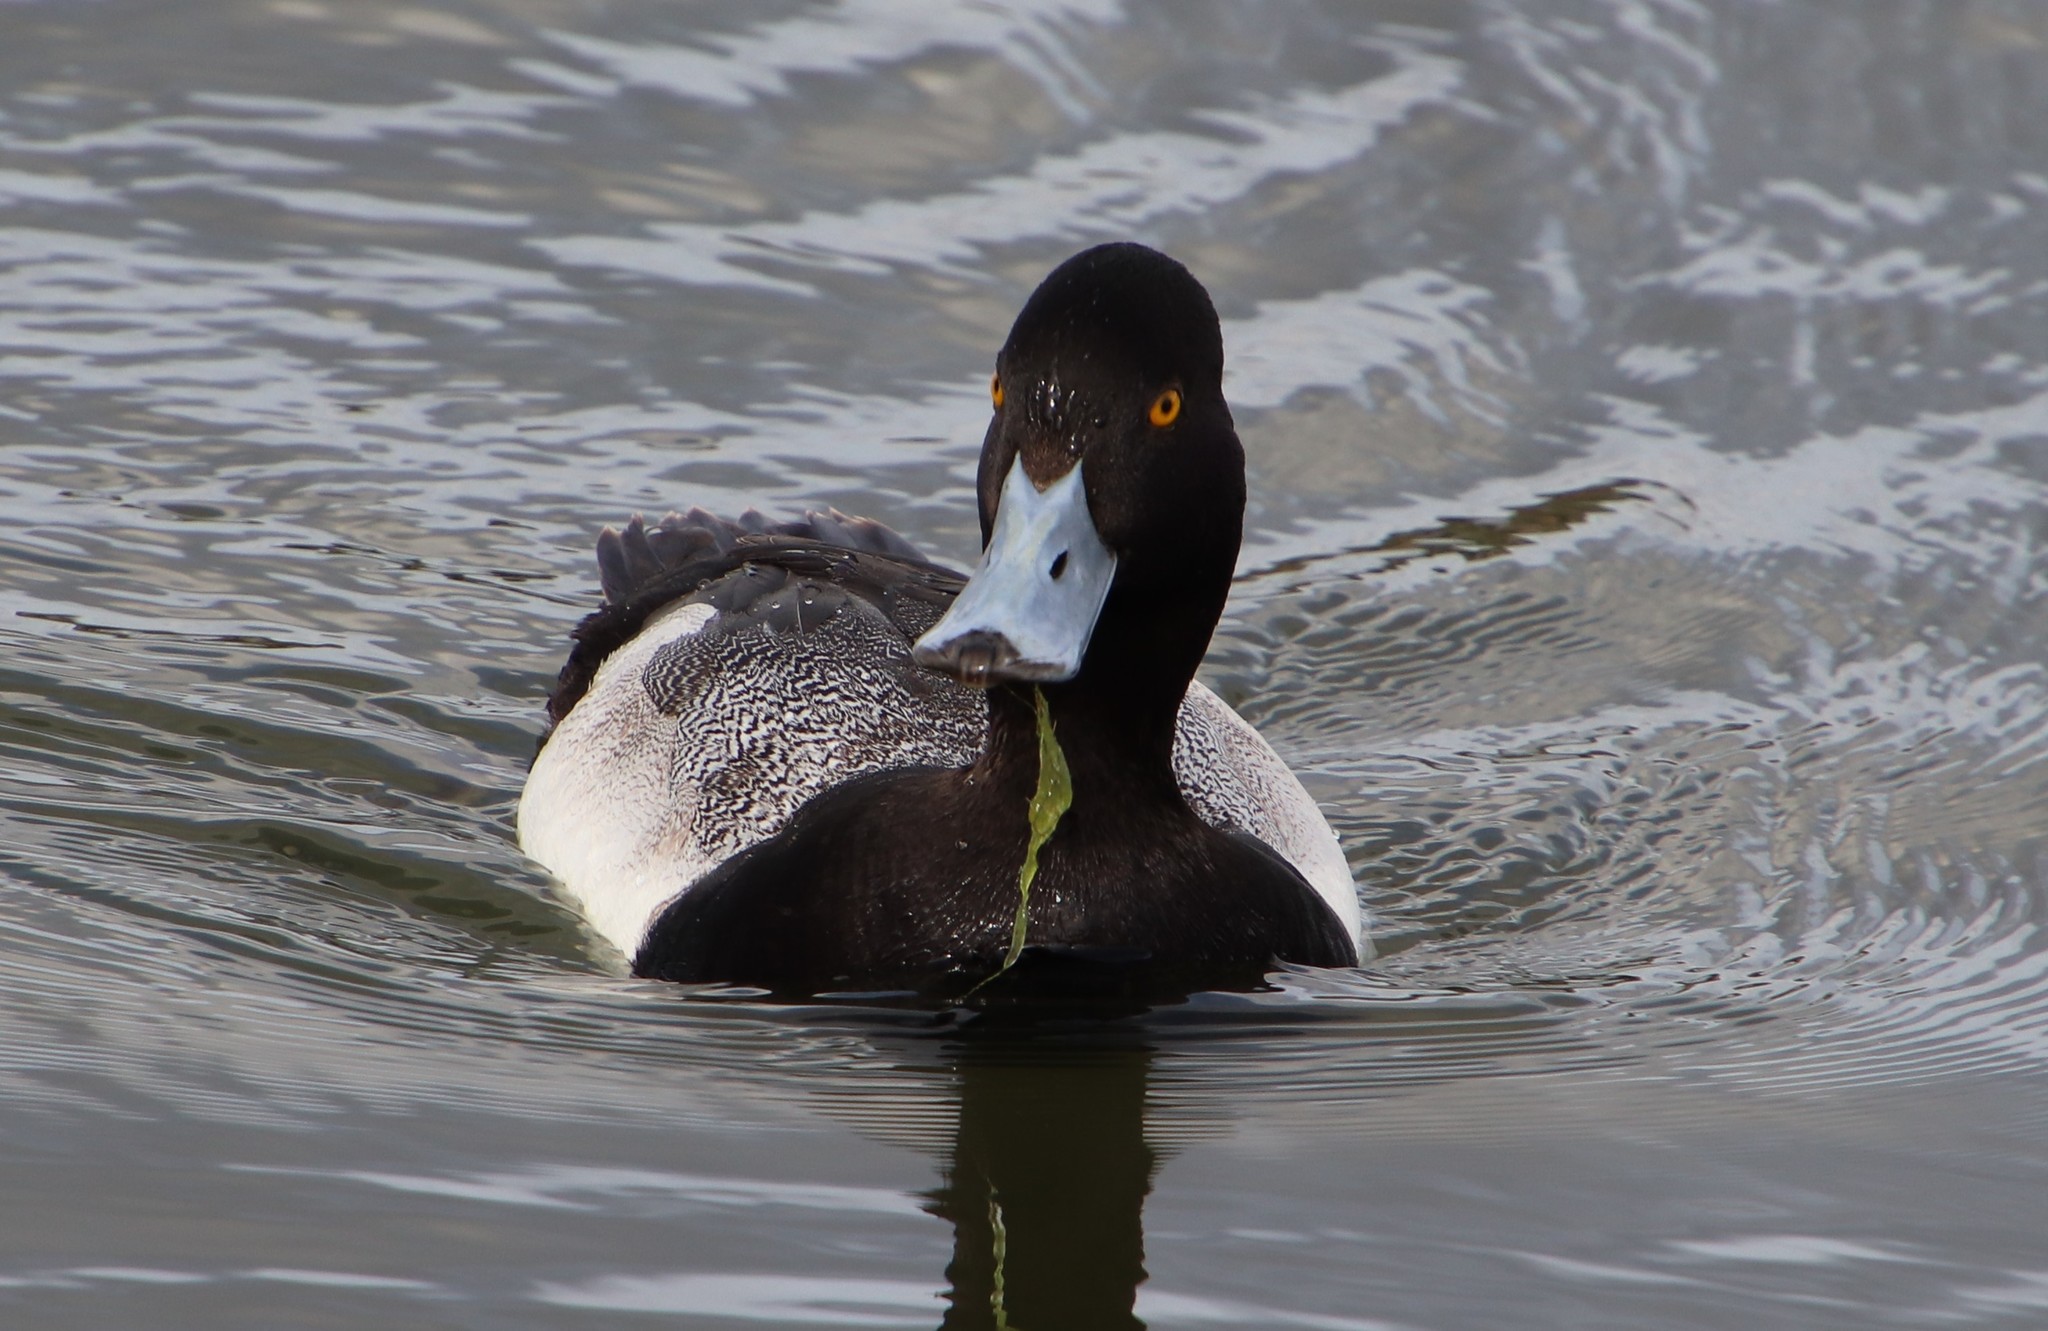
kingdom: Animalia
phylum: Chordata
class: Aves
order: Anseriformes
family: Anatidae
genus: Aythya
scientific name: Aythya marila
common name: Greater scaup
